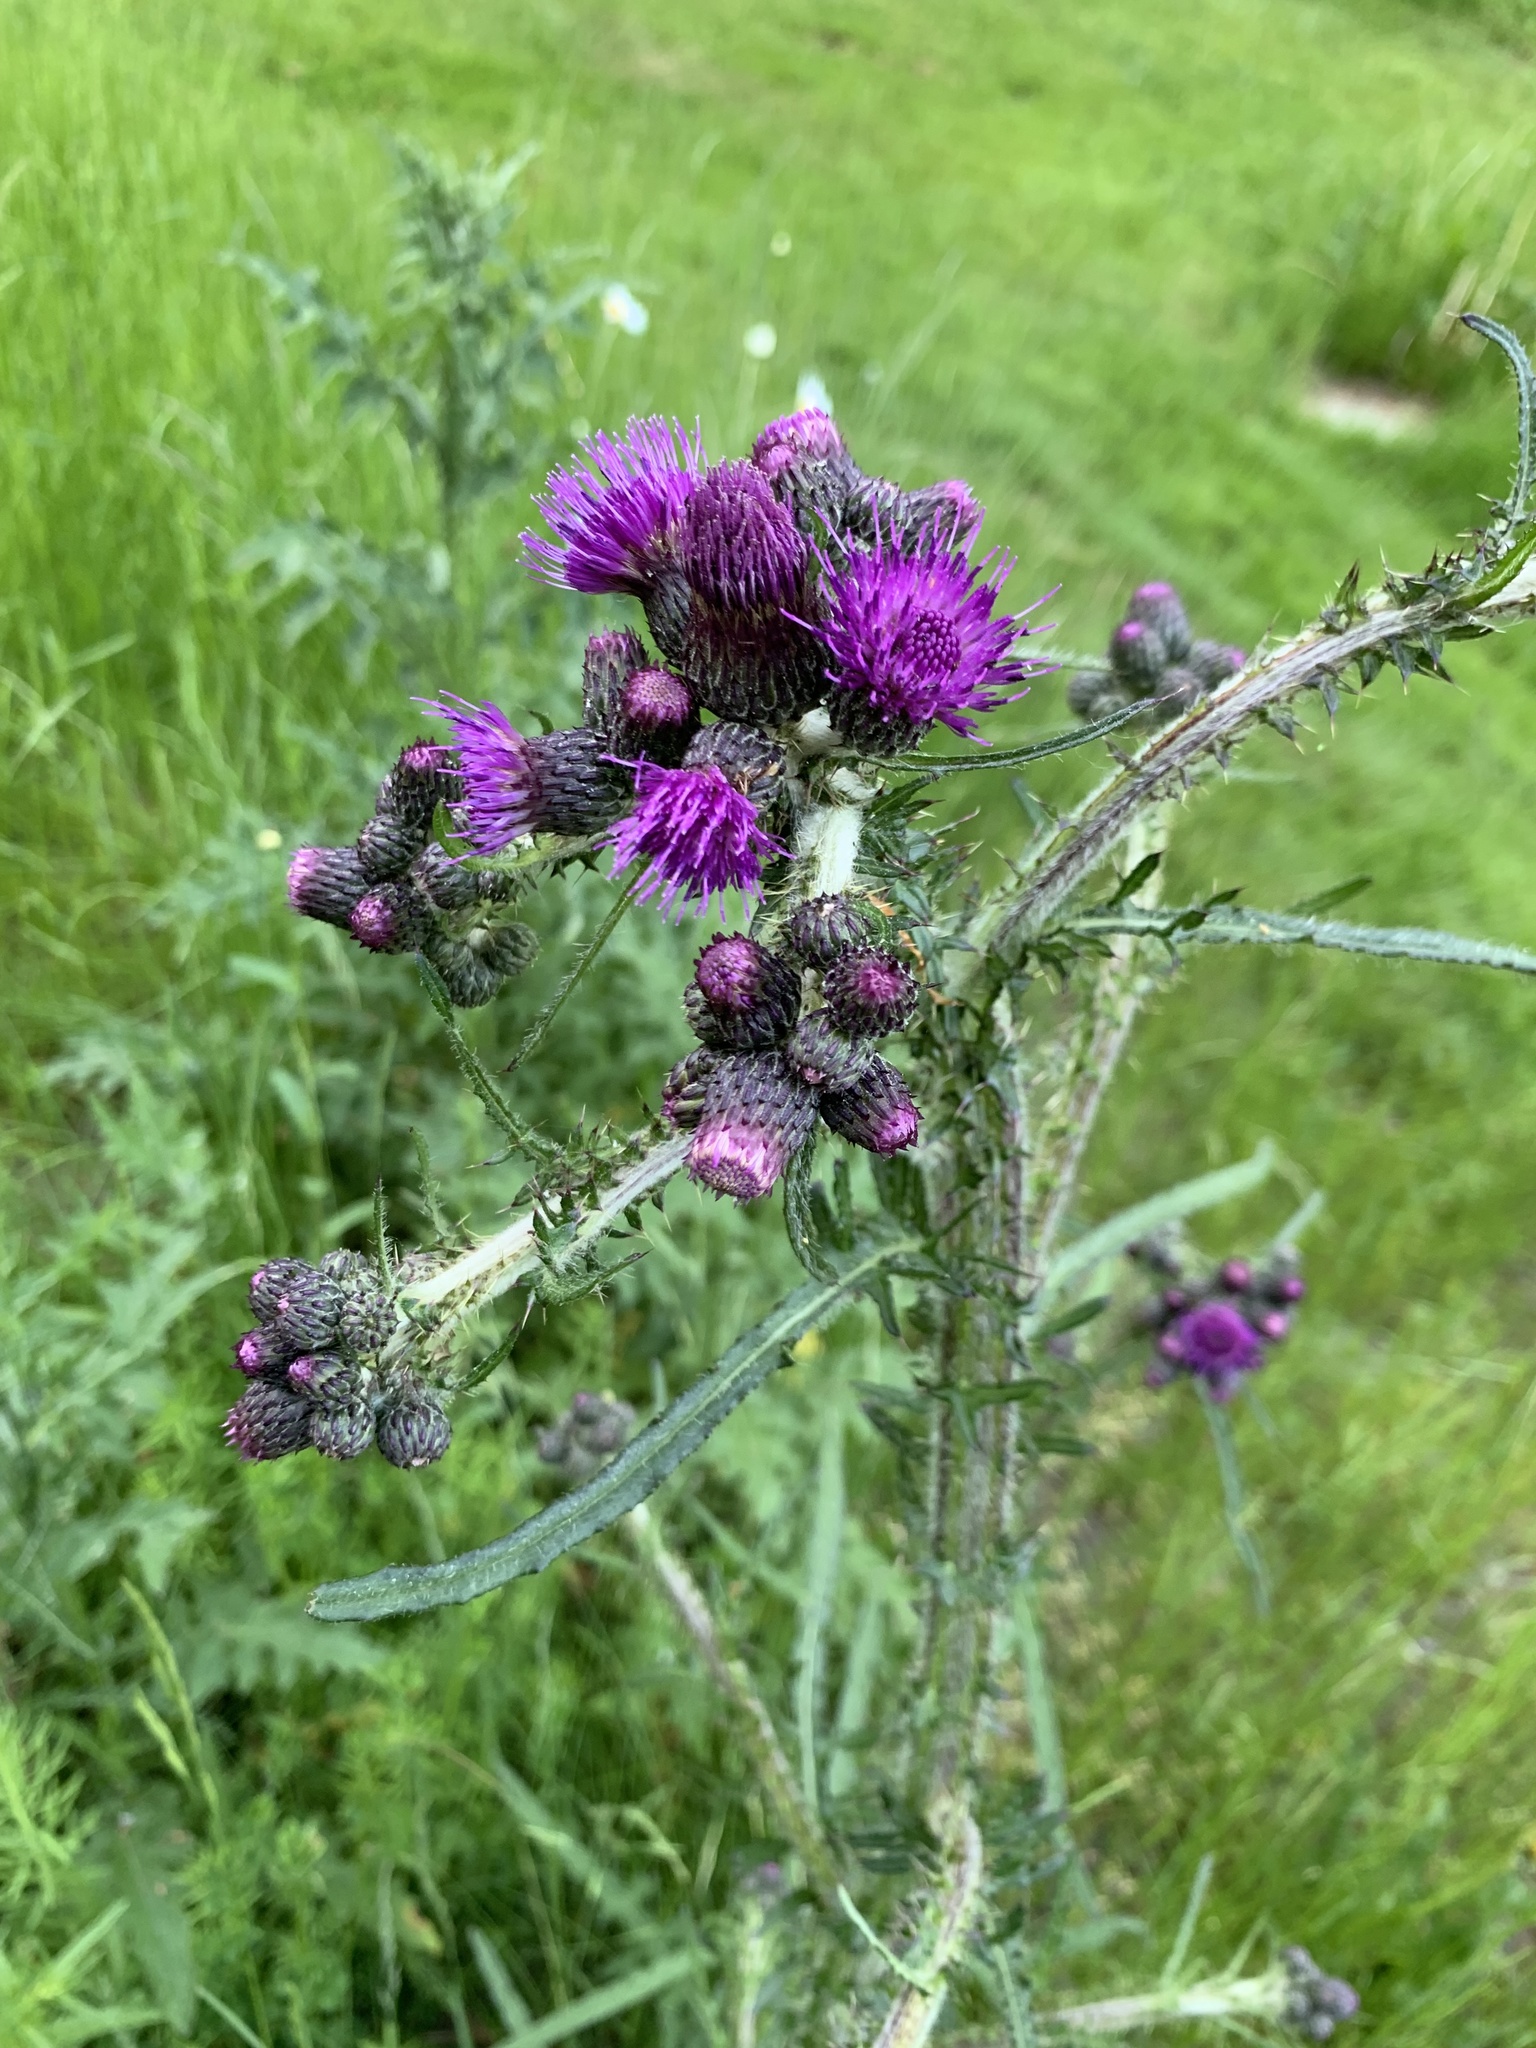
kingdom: Plantae
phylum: Tracheophyta
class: Magnoliopsida
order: Asterales
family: Asteraceae
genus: Cirsium
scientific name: Cirsium palustre
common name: Marsh thistle
